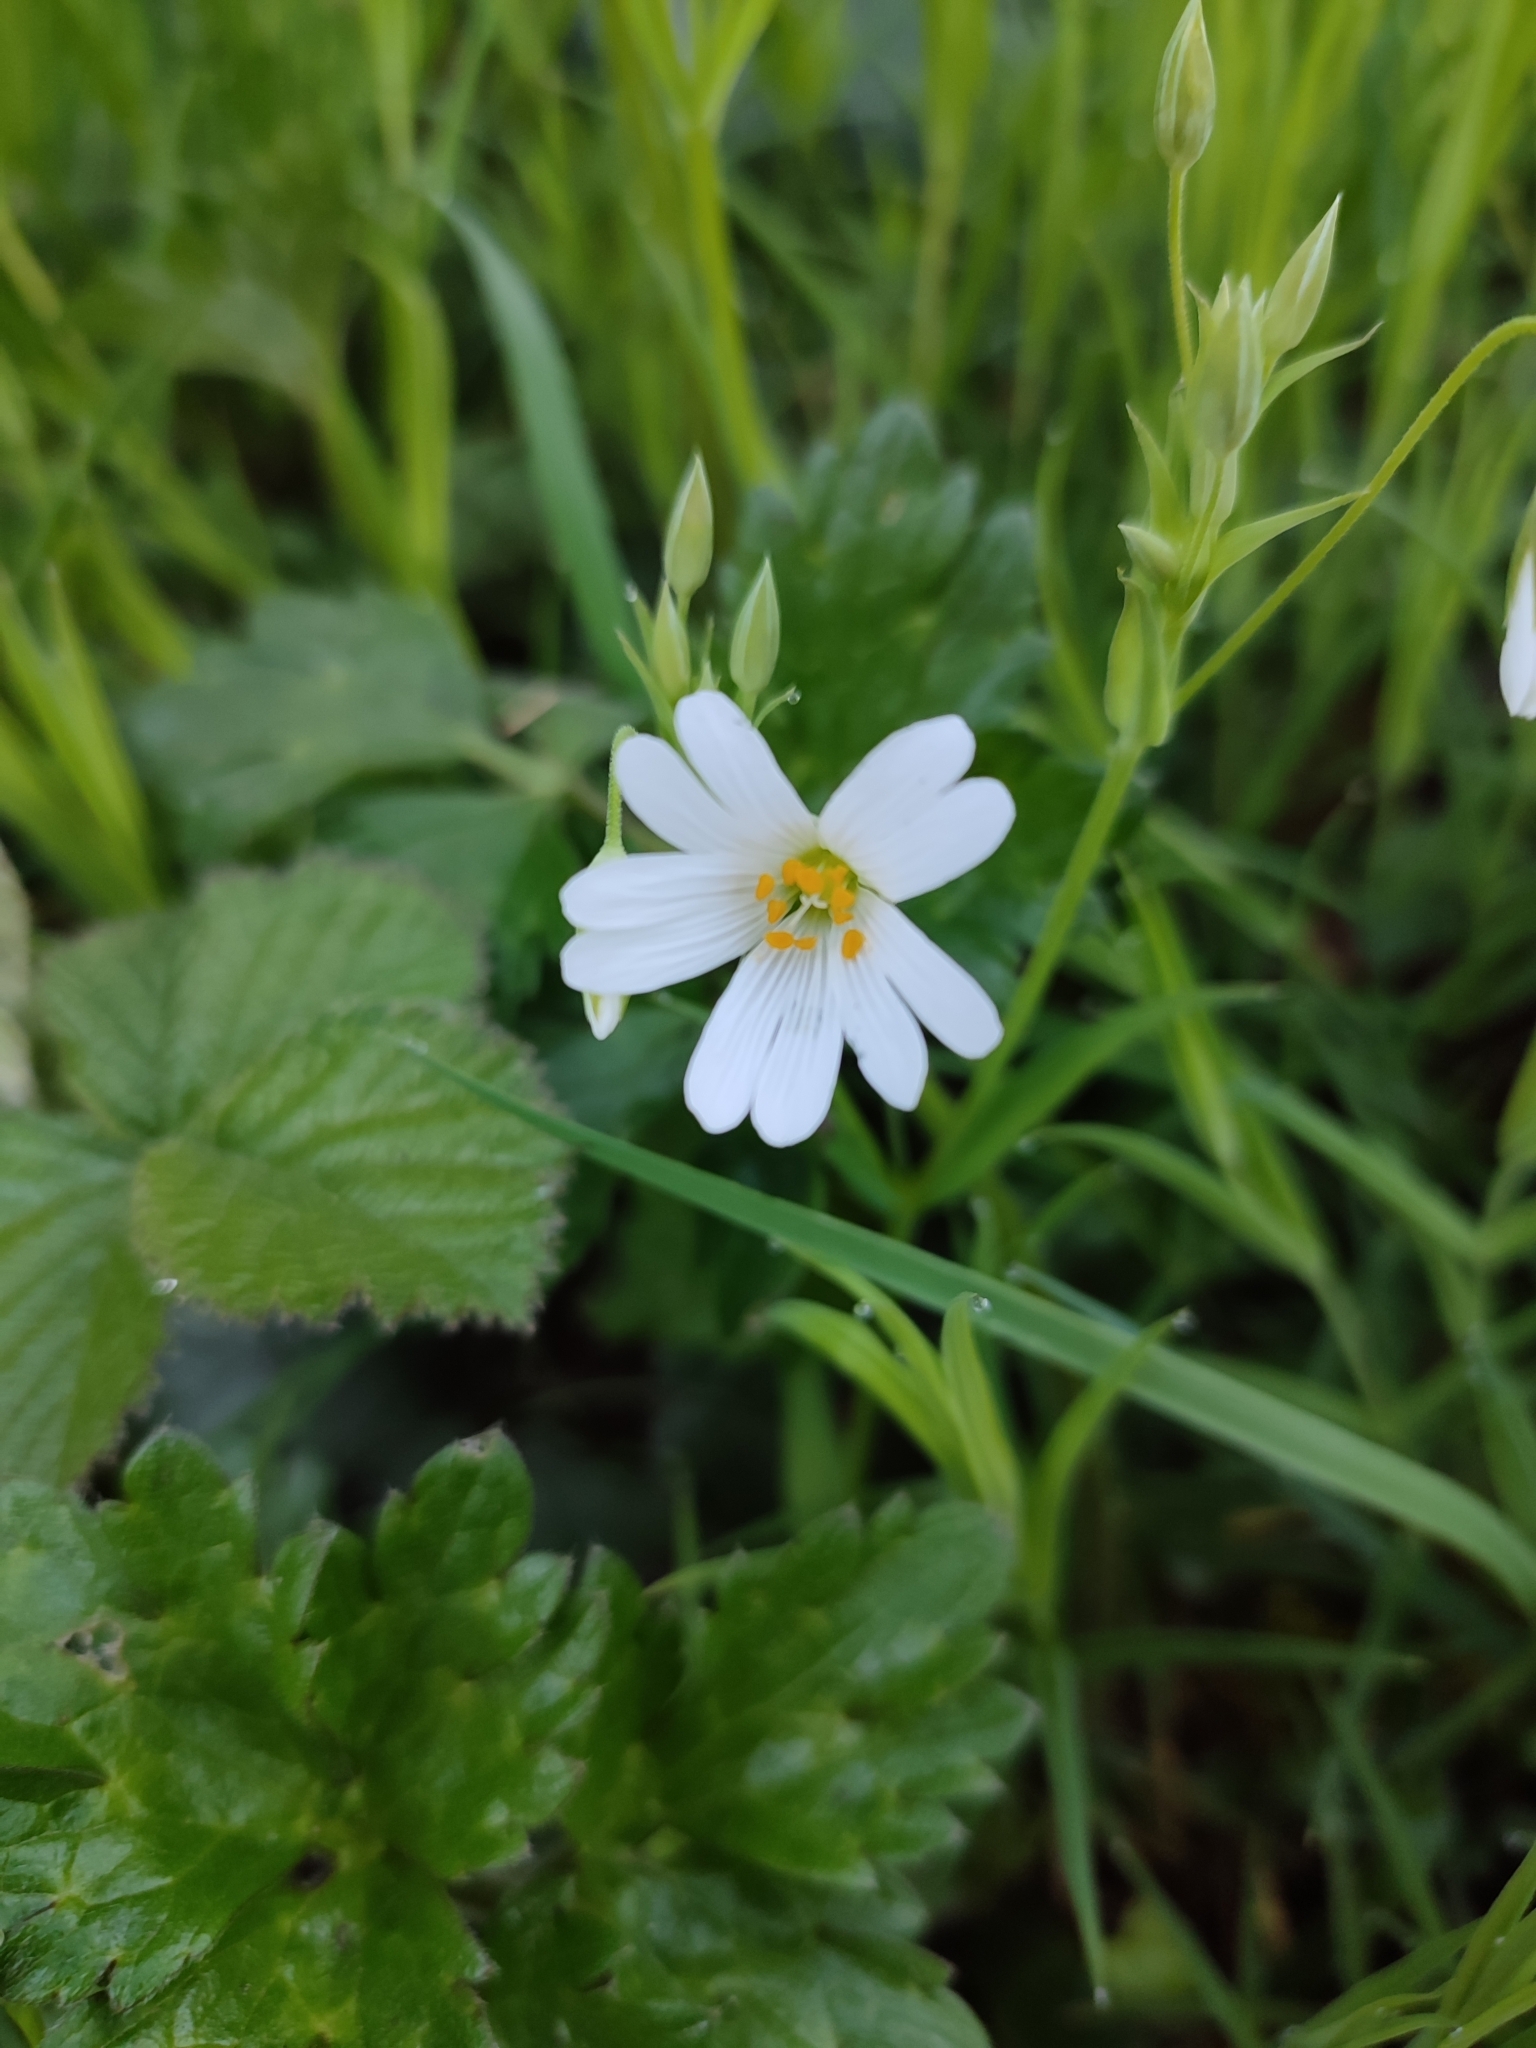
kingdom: Plantae
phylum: Tracheophyta
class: Magnoliopsida
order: Caryophyllales
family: Caryophyllaceae
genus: Rabelera
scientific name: Rabelera holostea
